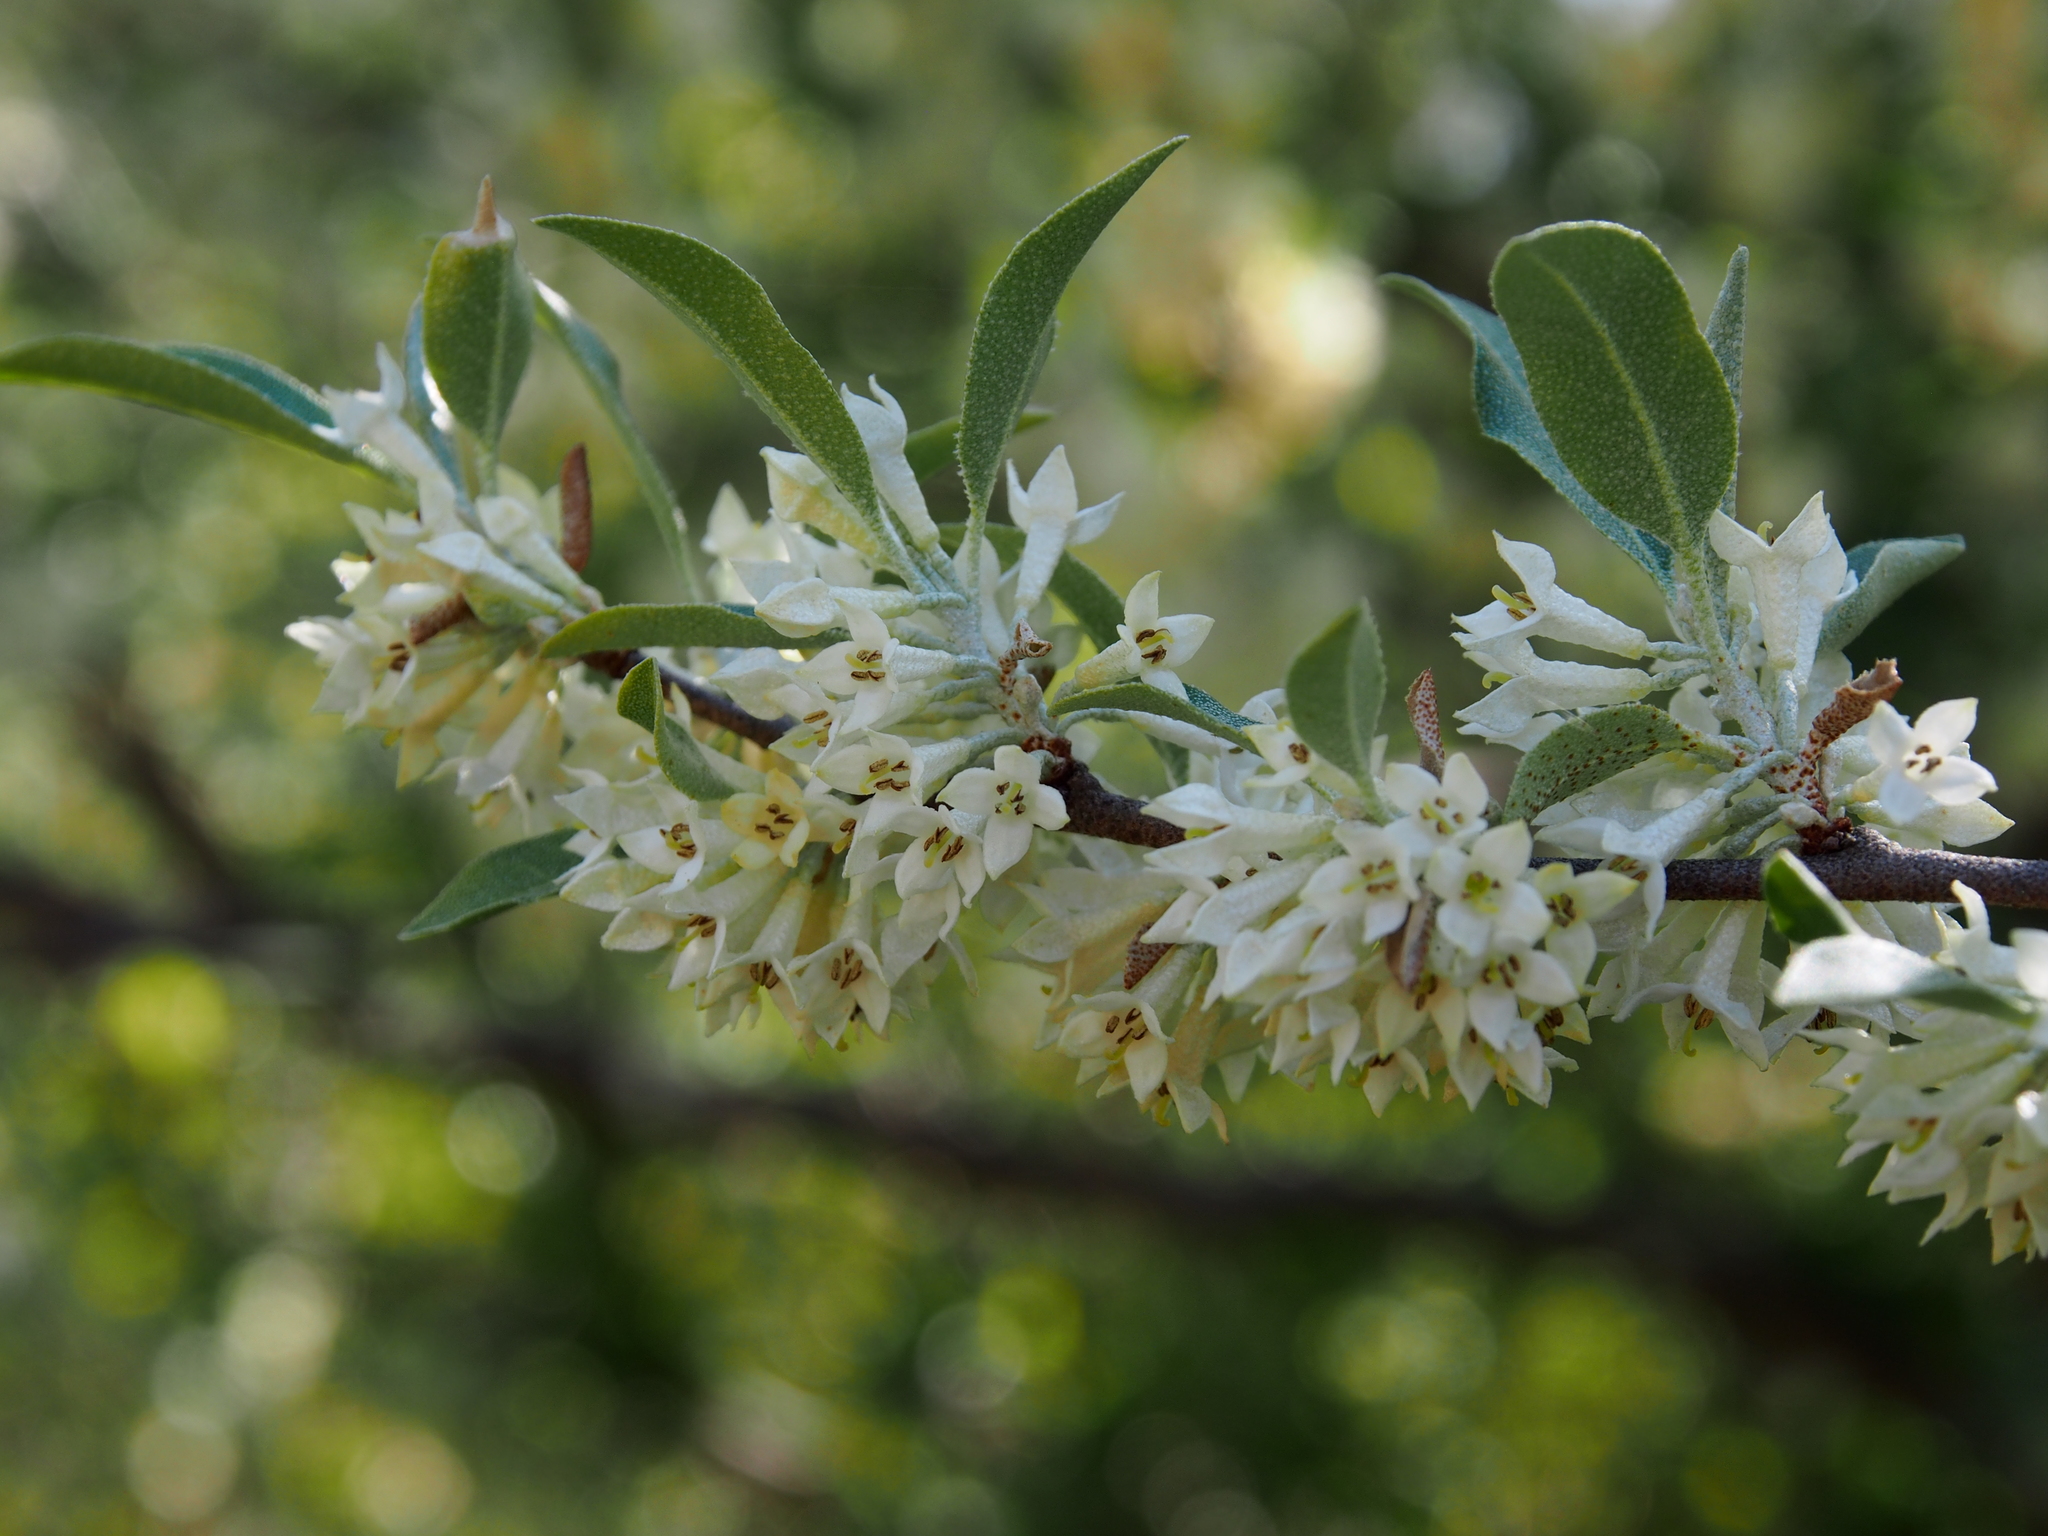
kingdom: Plantae
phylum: Tracheophyta
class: Magnoliopsida
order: Rosales
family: Elaeagnaceae
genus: Elaeagnus
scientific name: Elaeagnus umbellata
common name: Autumn olive
